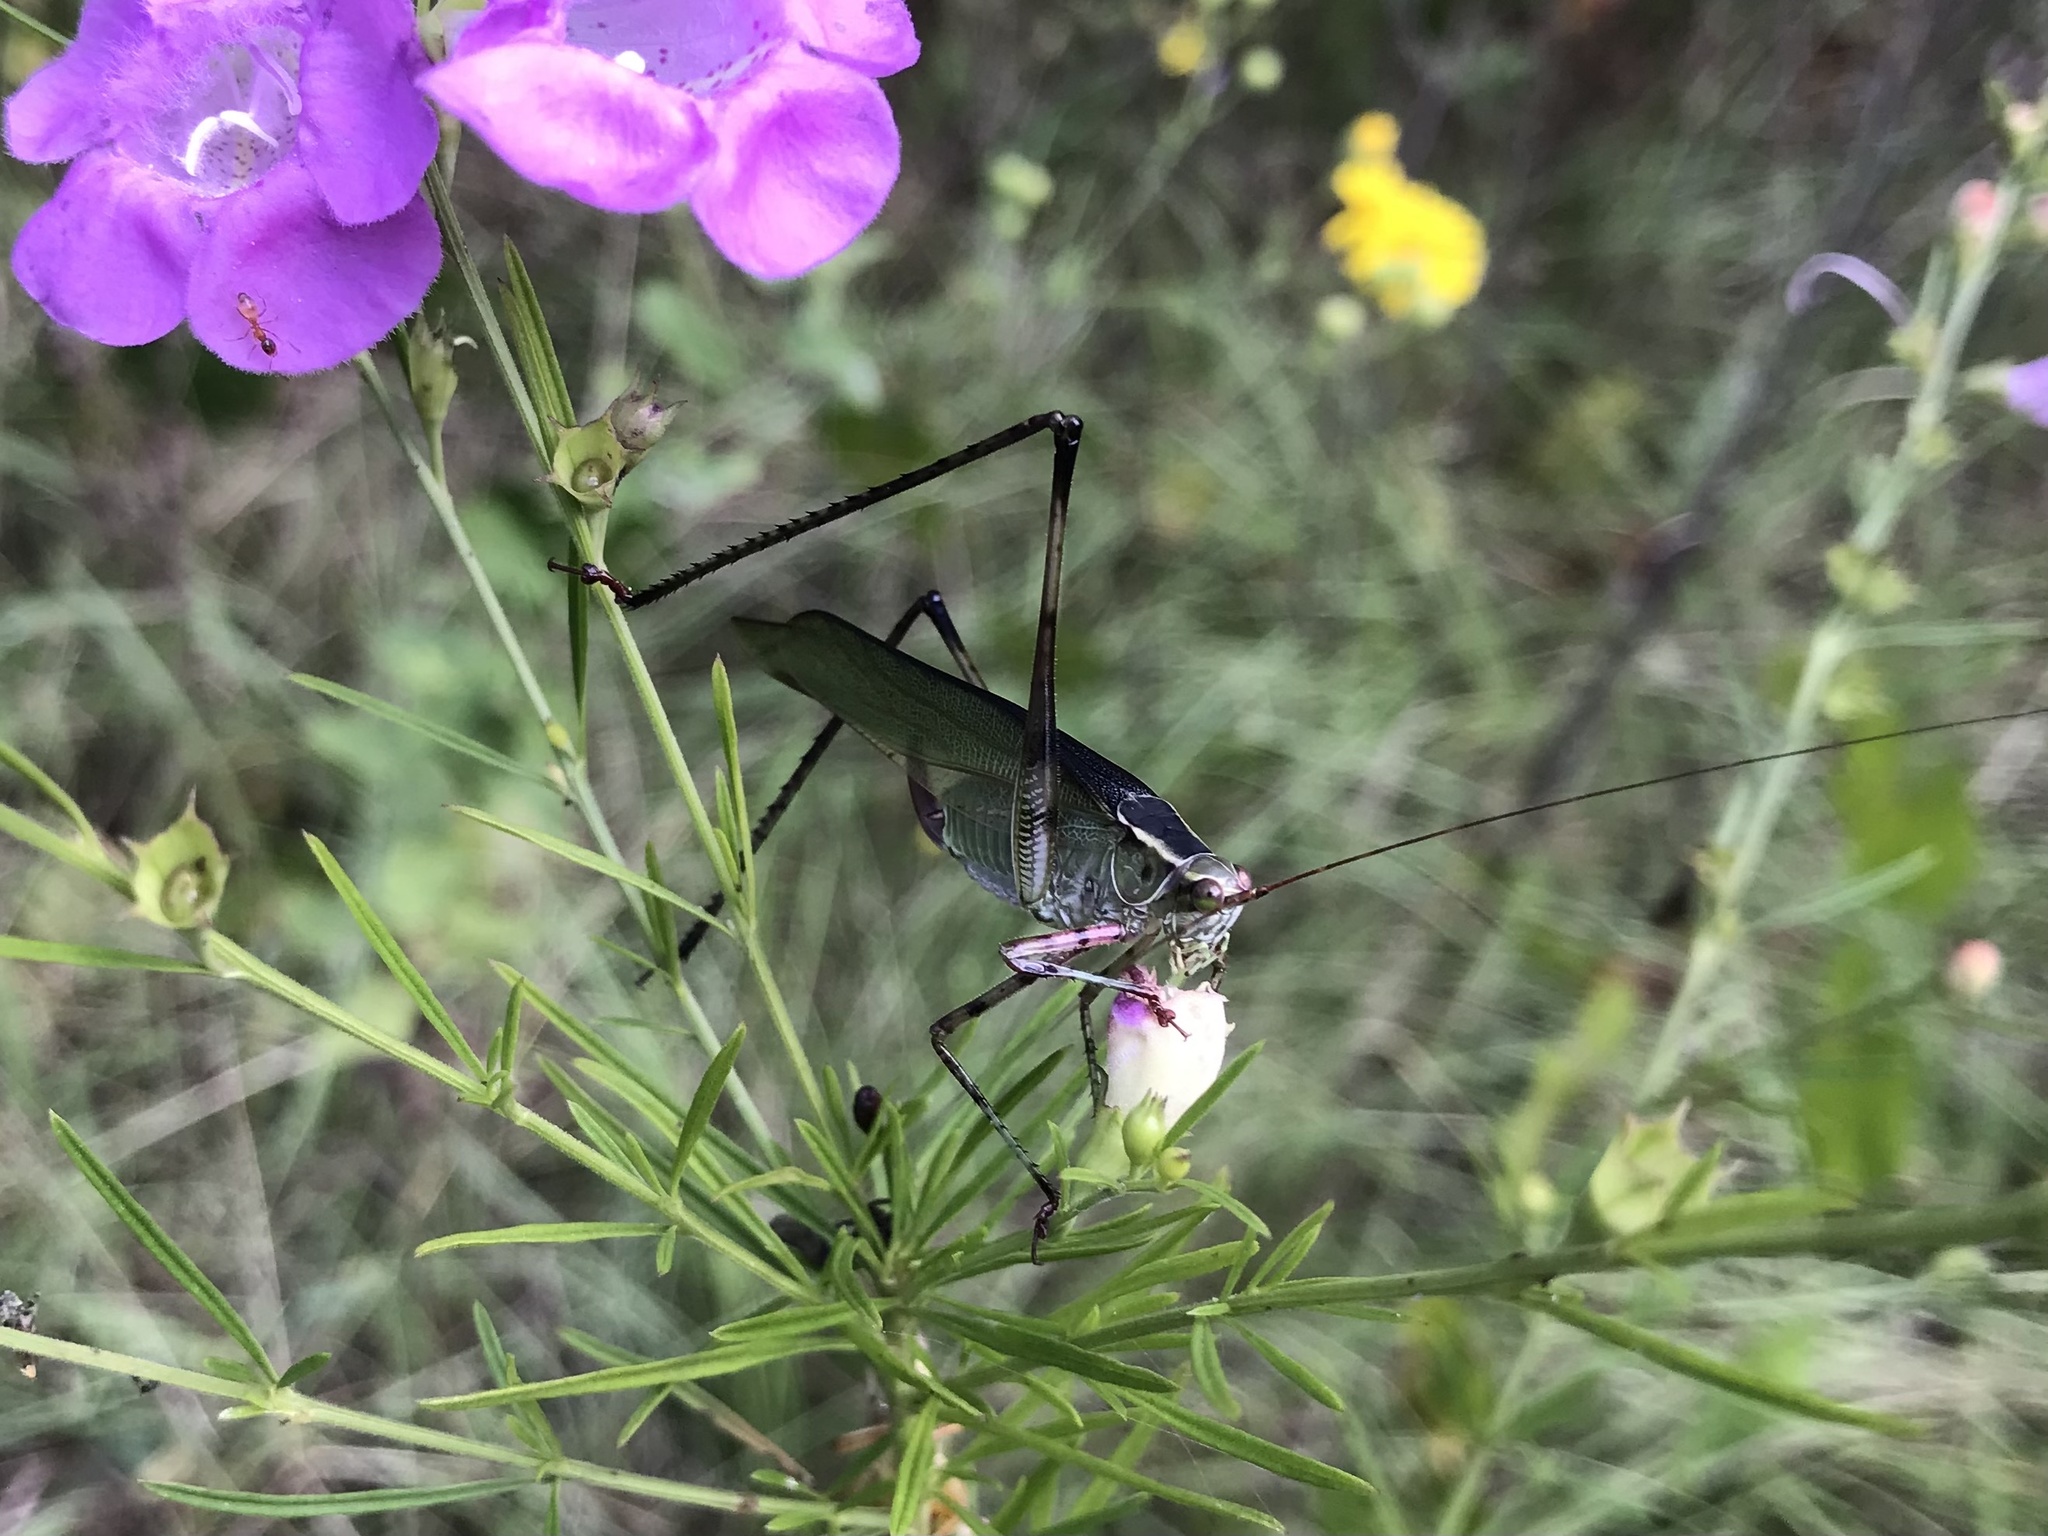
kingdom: Animalia
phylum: Arthropoda
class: Insecta
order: Orthoptera
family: Tettigoniidae
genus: Scudderia
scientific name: Scudderia furcata
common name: Fork-tailed bush katydid
